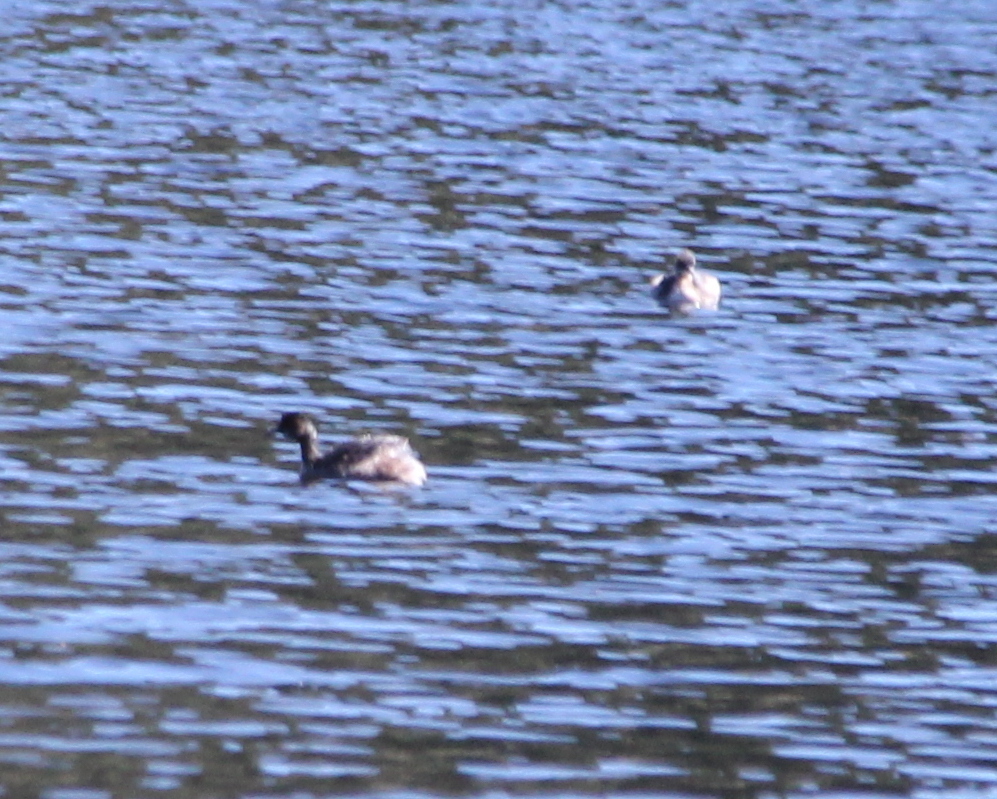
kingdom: Animalia
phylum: Chordata
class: Aves
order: Podicipediformes
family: Podicipedidae
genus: Podiceps
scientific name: Podiceps nigricollis
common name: Black-necked grebe
